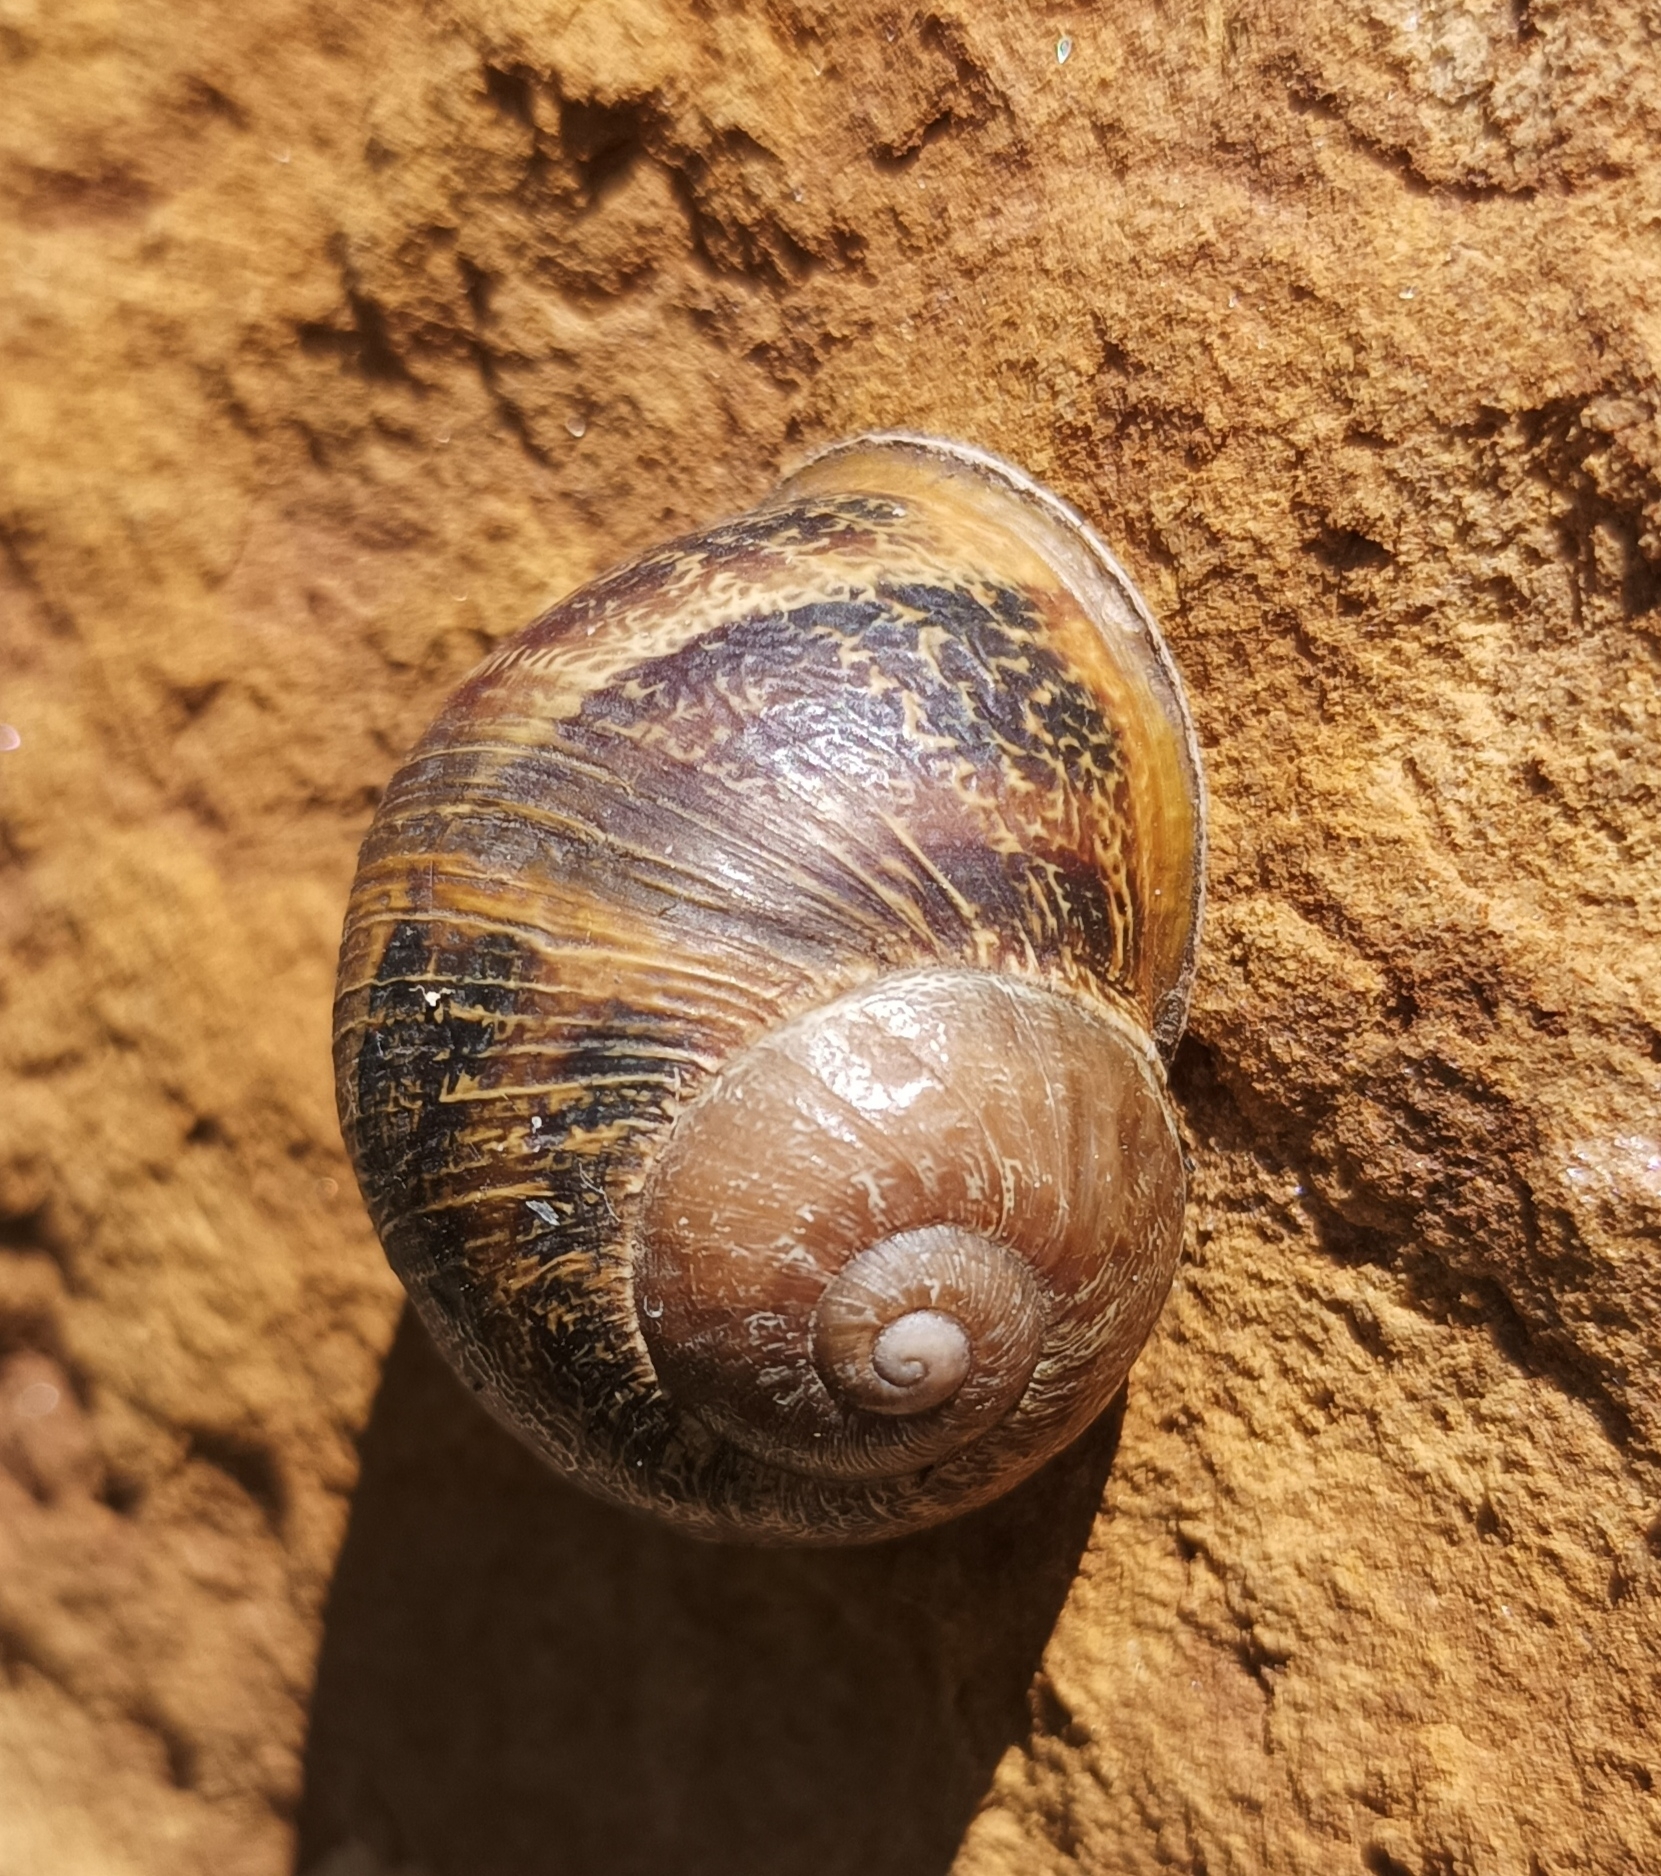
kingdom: Animalia
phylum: Mollusca
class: Gastropoda
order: Stylommatophora
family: Helicidae
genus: Cornu
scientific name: Cornu aspersum
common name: Brown garden snail
